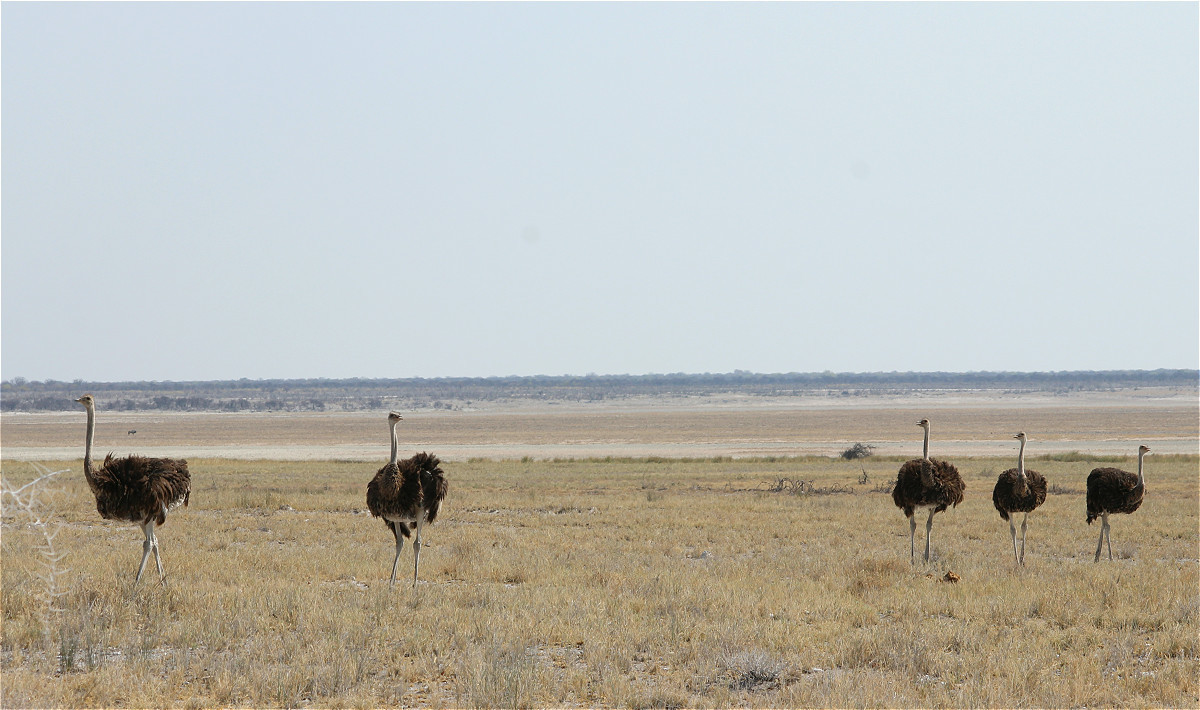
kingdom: Animalia
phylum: Chordata
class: Aves
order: Struthioniformes
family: Struthionidae
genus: Struthio
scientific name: Struthio camelus
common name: Common ostrich
